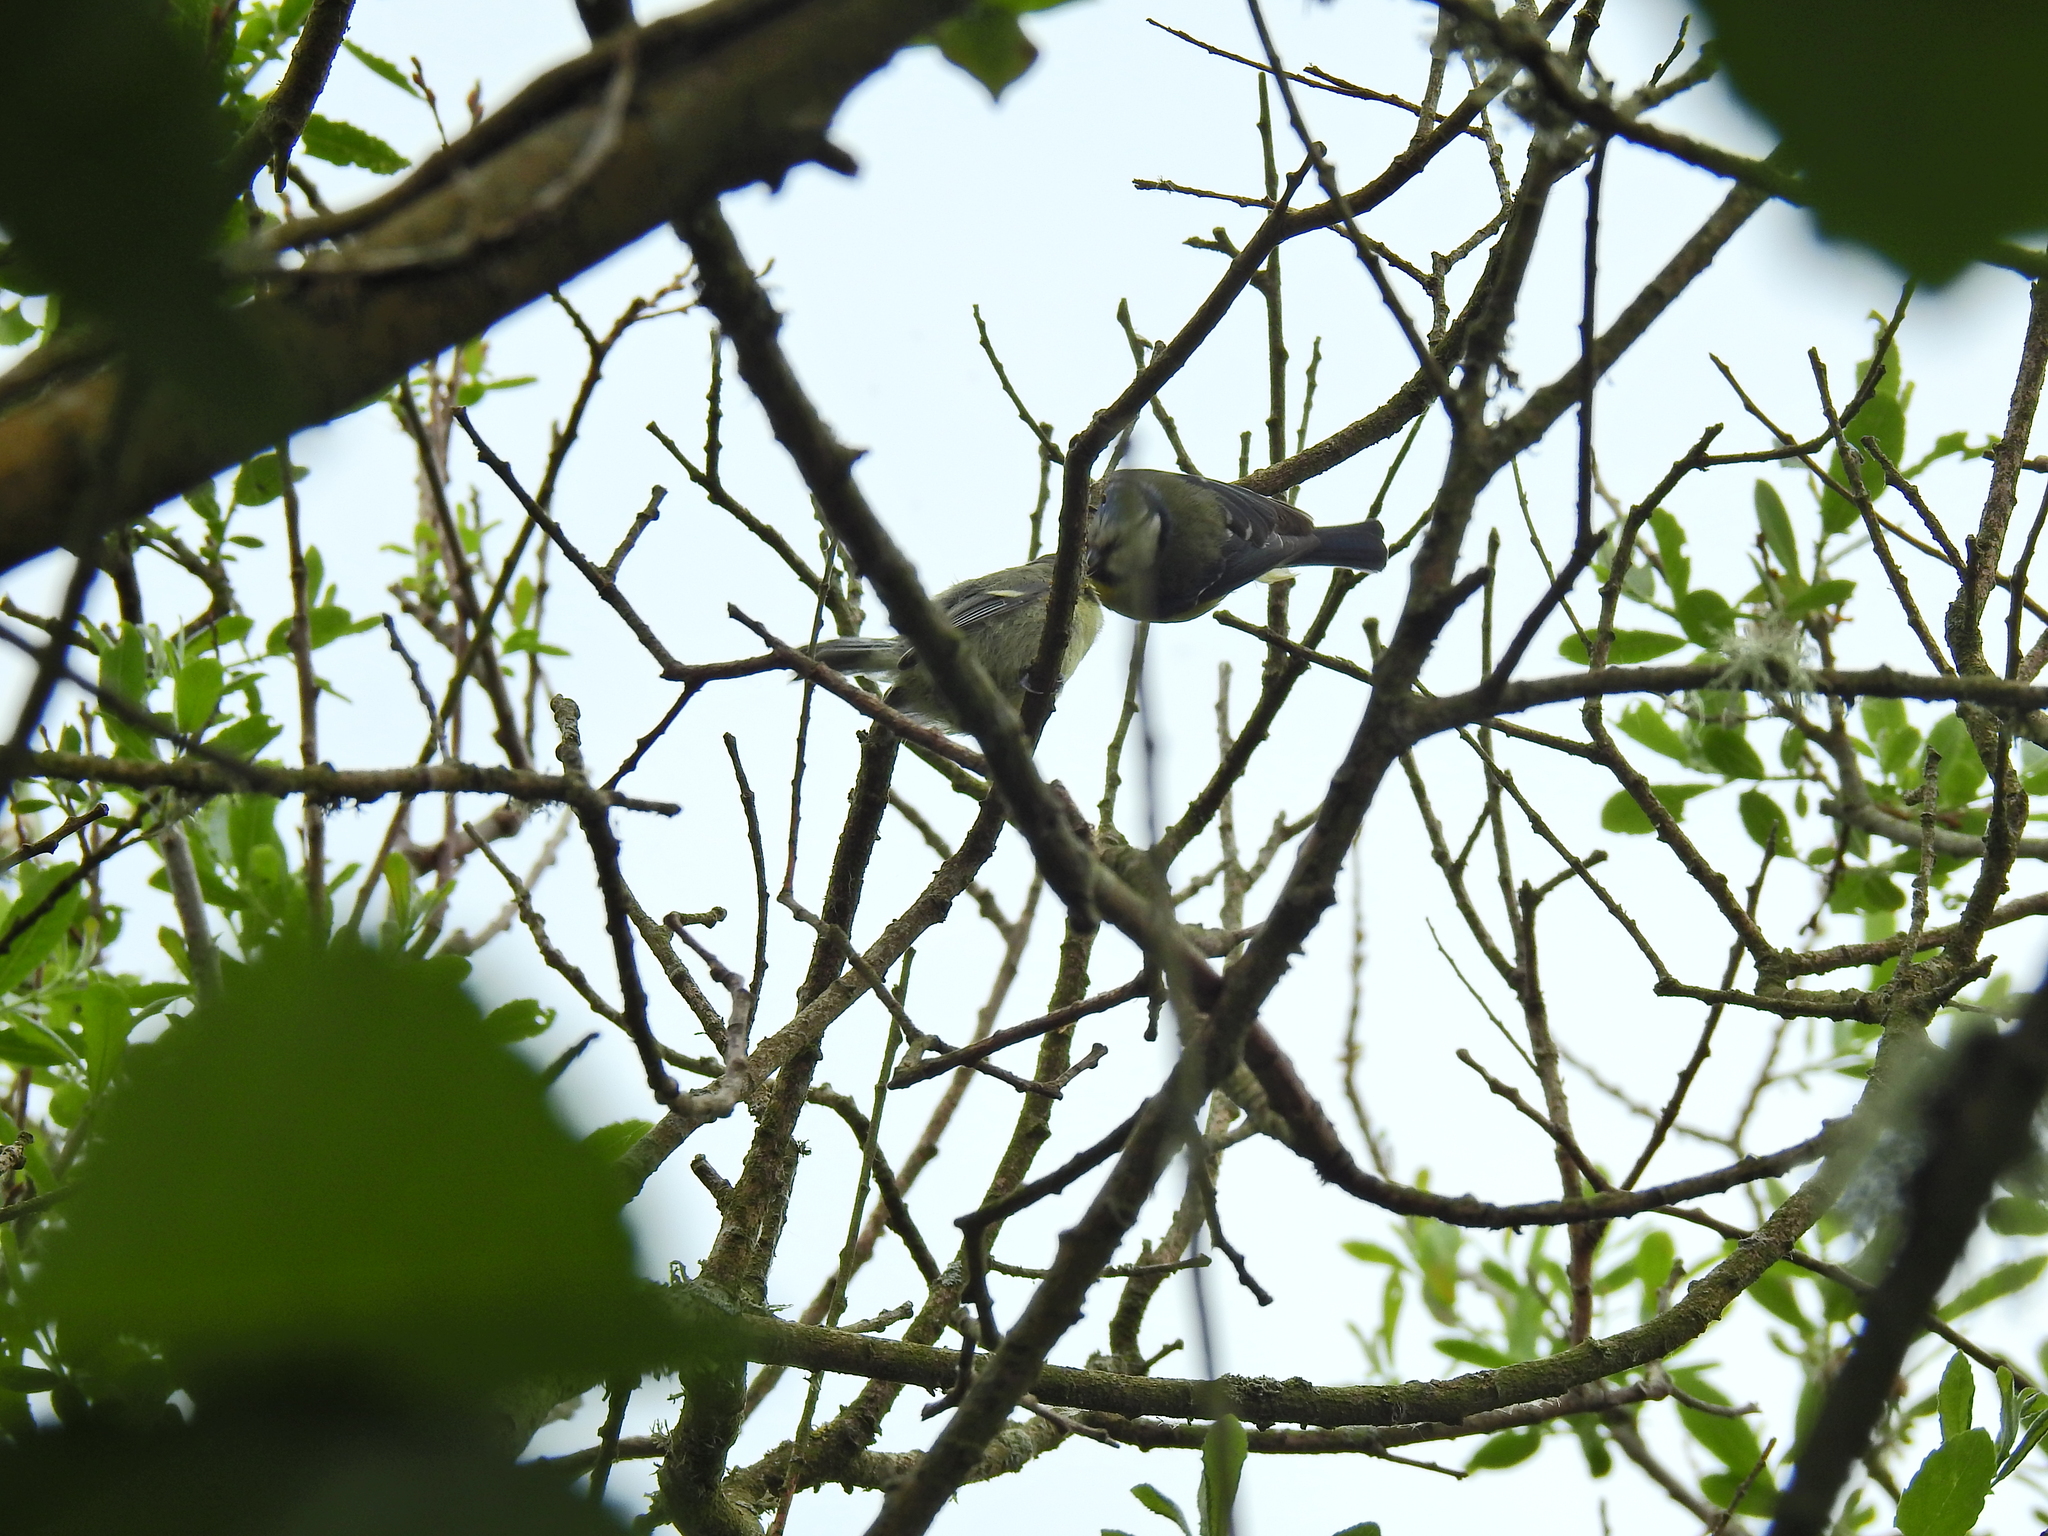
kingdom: Animalia
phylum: Chordata
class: Aves
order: Passeriformes
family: Paridae
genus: Cyanistes
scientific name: Cyanistes caeruleus
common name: Eurasian blue tit
